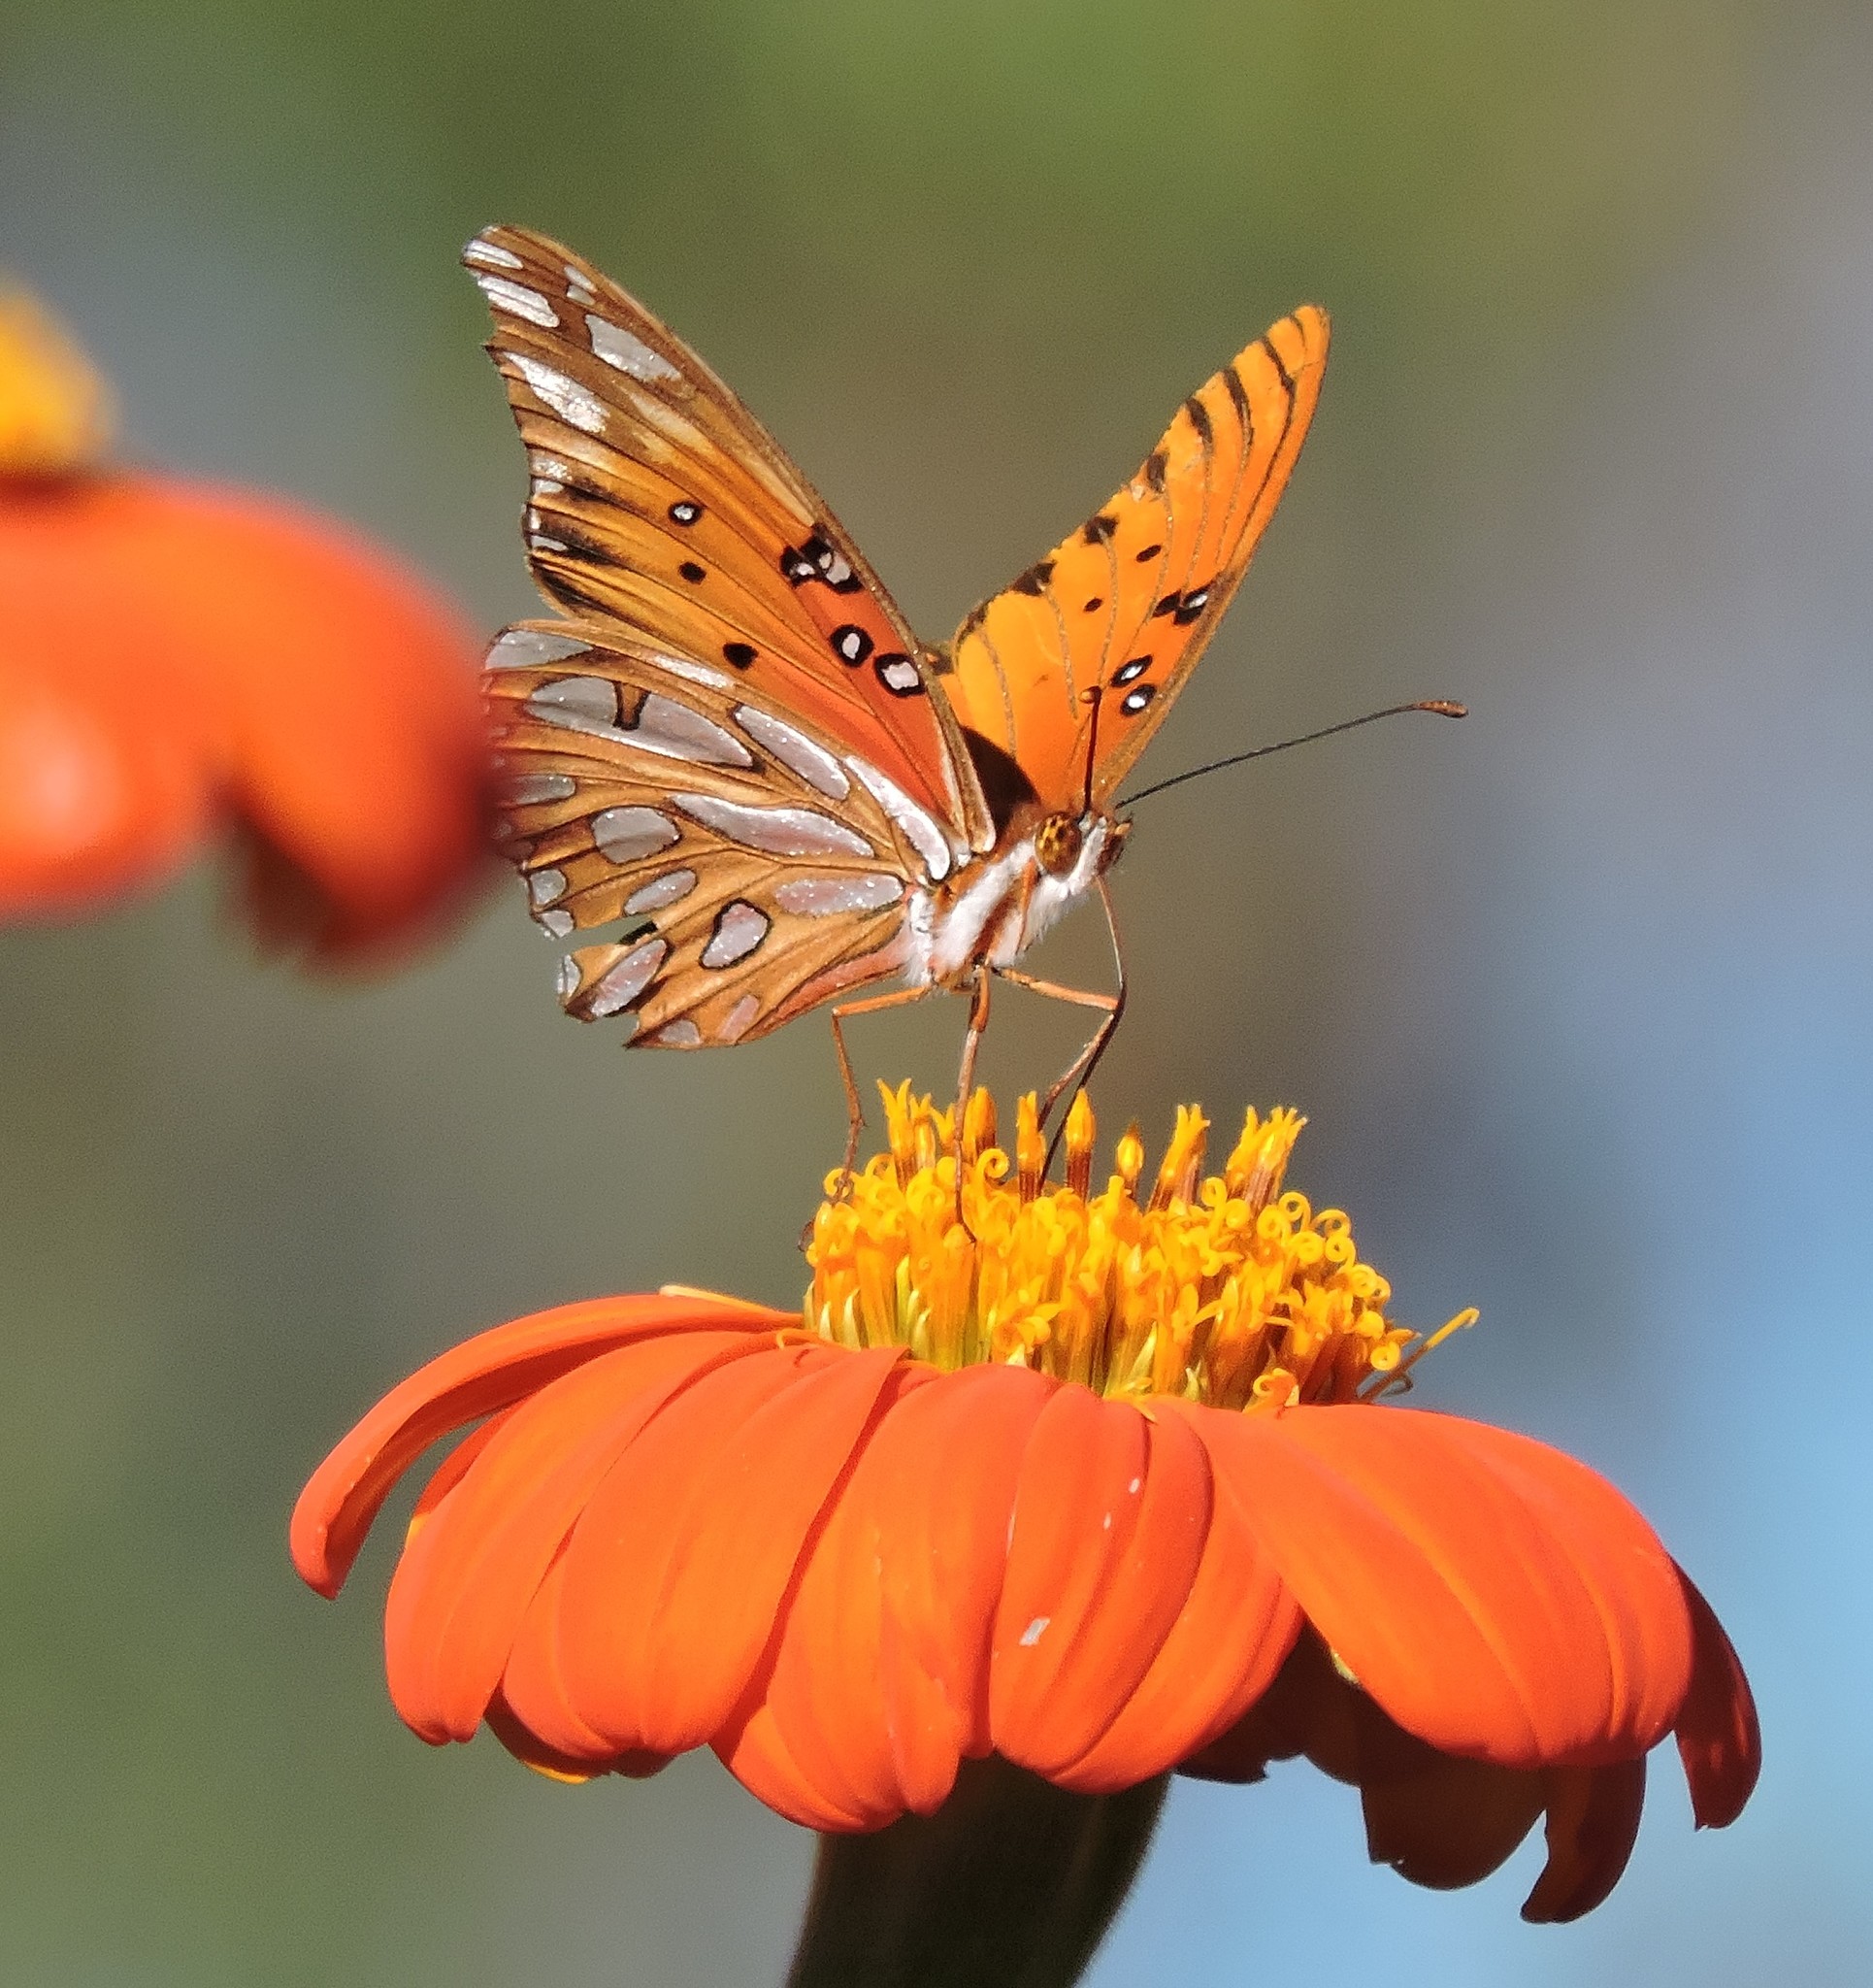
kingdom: Animalia
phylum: Arthropoda
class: Insecta
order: Lepidoptera
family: Nymphalidae
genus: Dione
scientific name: Dione vanillae
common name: Gulf fritillary
